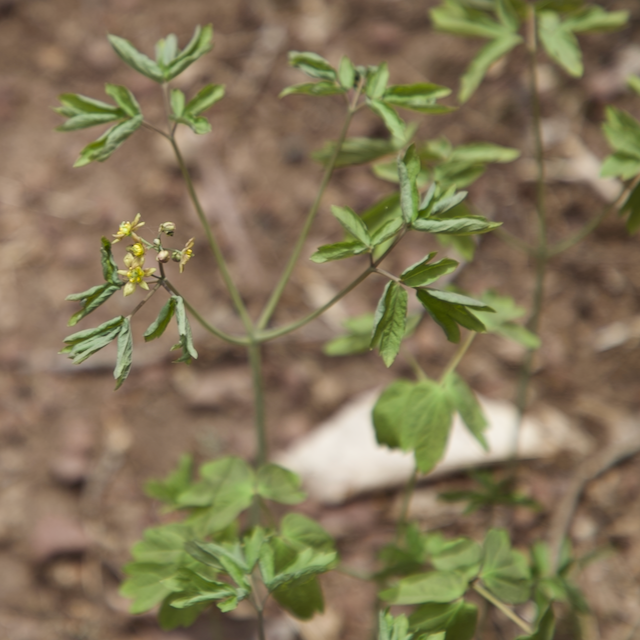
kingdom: Plantae
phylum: Tracheophyta
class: Magnoliopsida
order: Ranunculales
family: Berberidaceae
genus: Caulophyllum
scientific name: Caulophyllum thalictroides
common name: Blue cohosh
